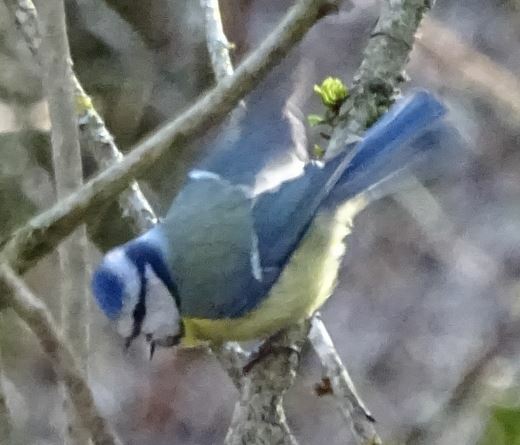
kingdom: Animalia
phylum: Chordata
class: Aves
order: Passeriformes
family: Paridae
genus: Cyanistes
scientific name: Cyanistes caeruleus
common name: Eurasian blue tit
